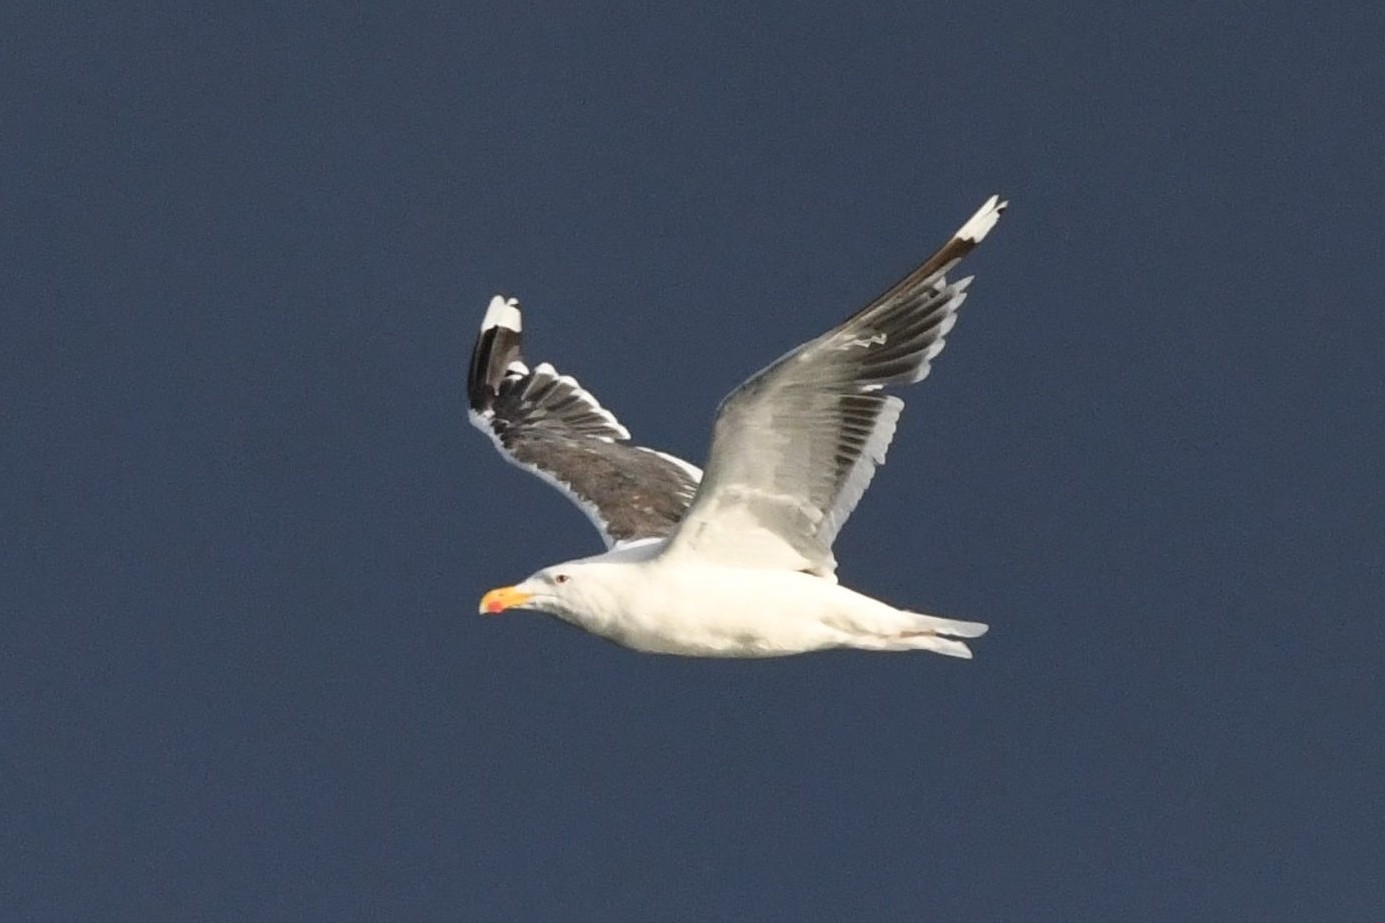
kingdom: Animalia
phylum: Chordata
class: Aves
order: Charadriiformes
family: Laridae
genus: Larus
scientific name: Larus marinus
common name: Great black-backed gull
